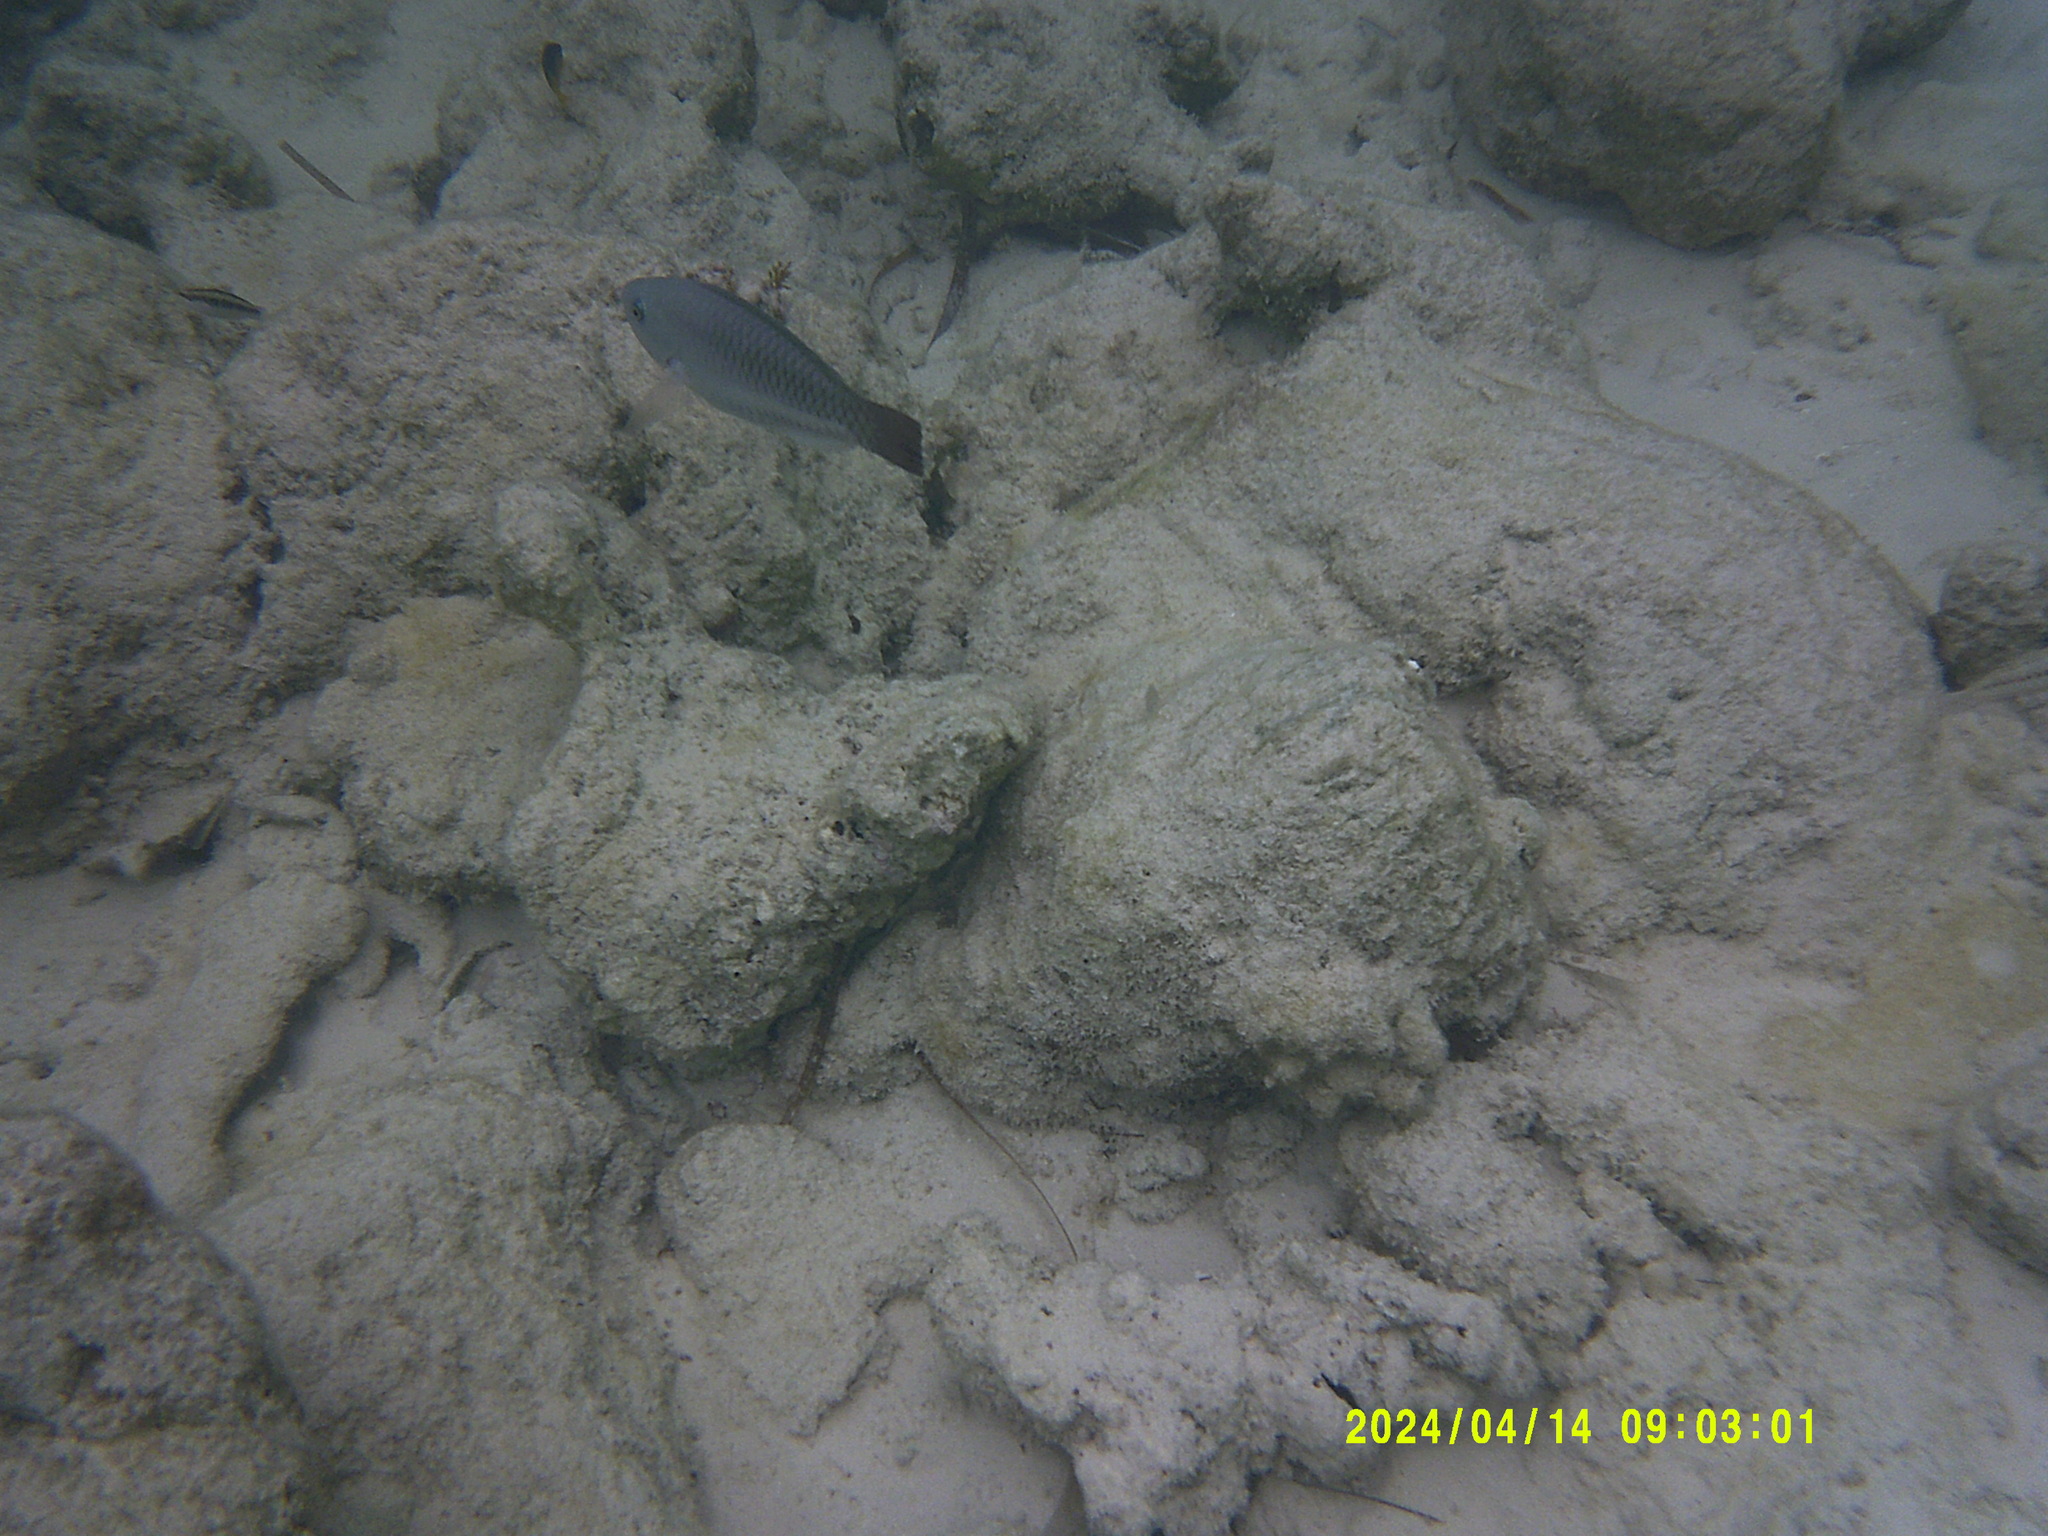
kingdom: Animalia
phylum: Chordata
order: Perciformes
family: Scaridae
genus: Scarus
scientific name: Scarus vetula
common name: Queen parrotfish
